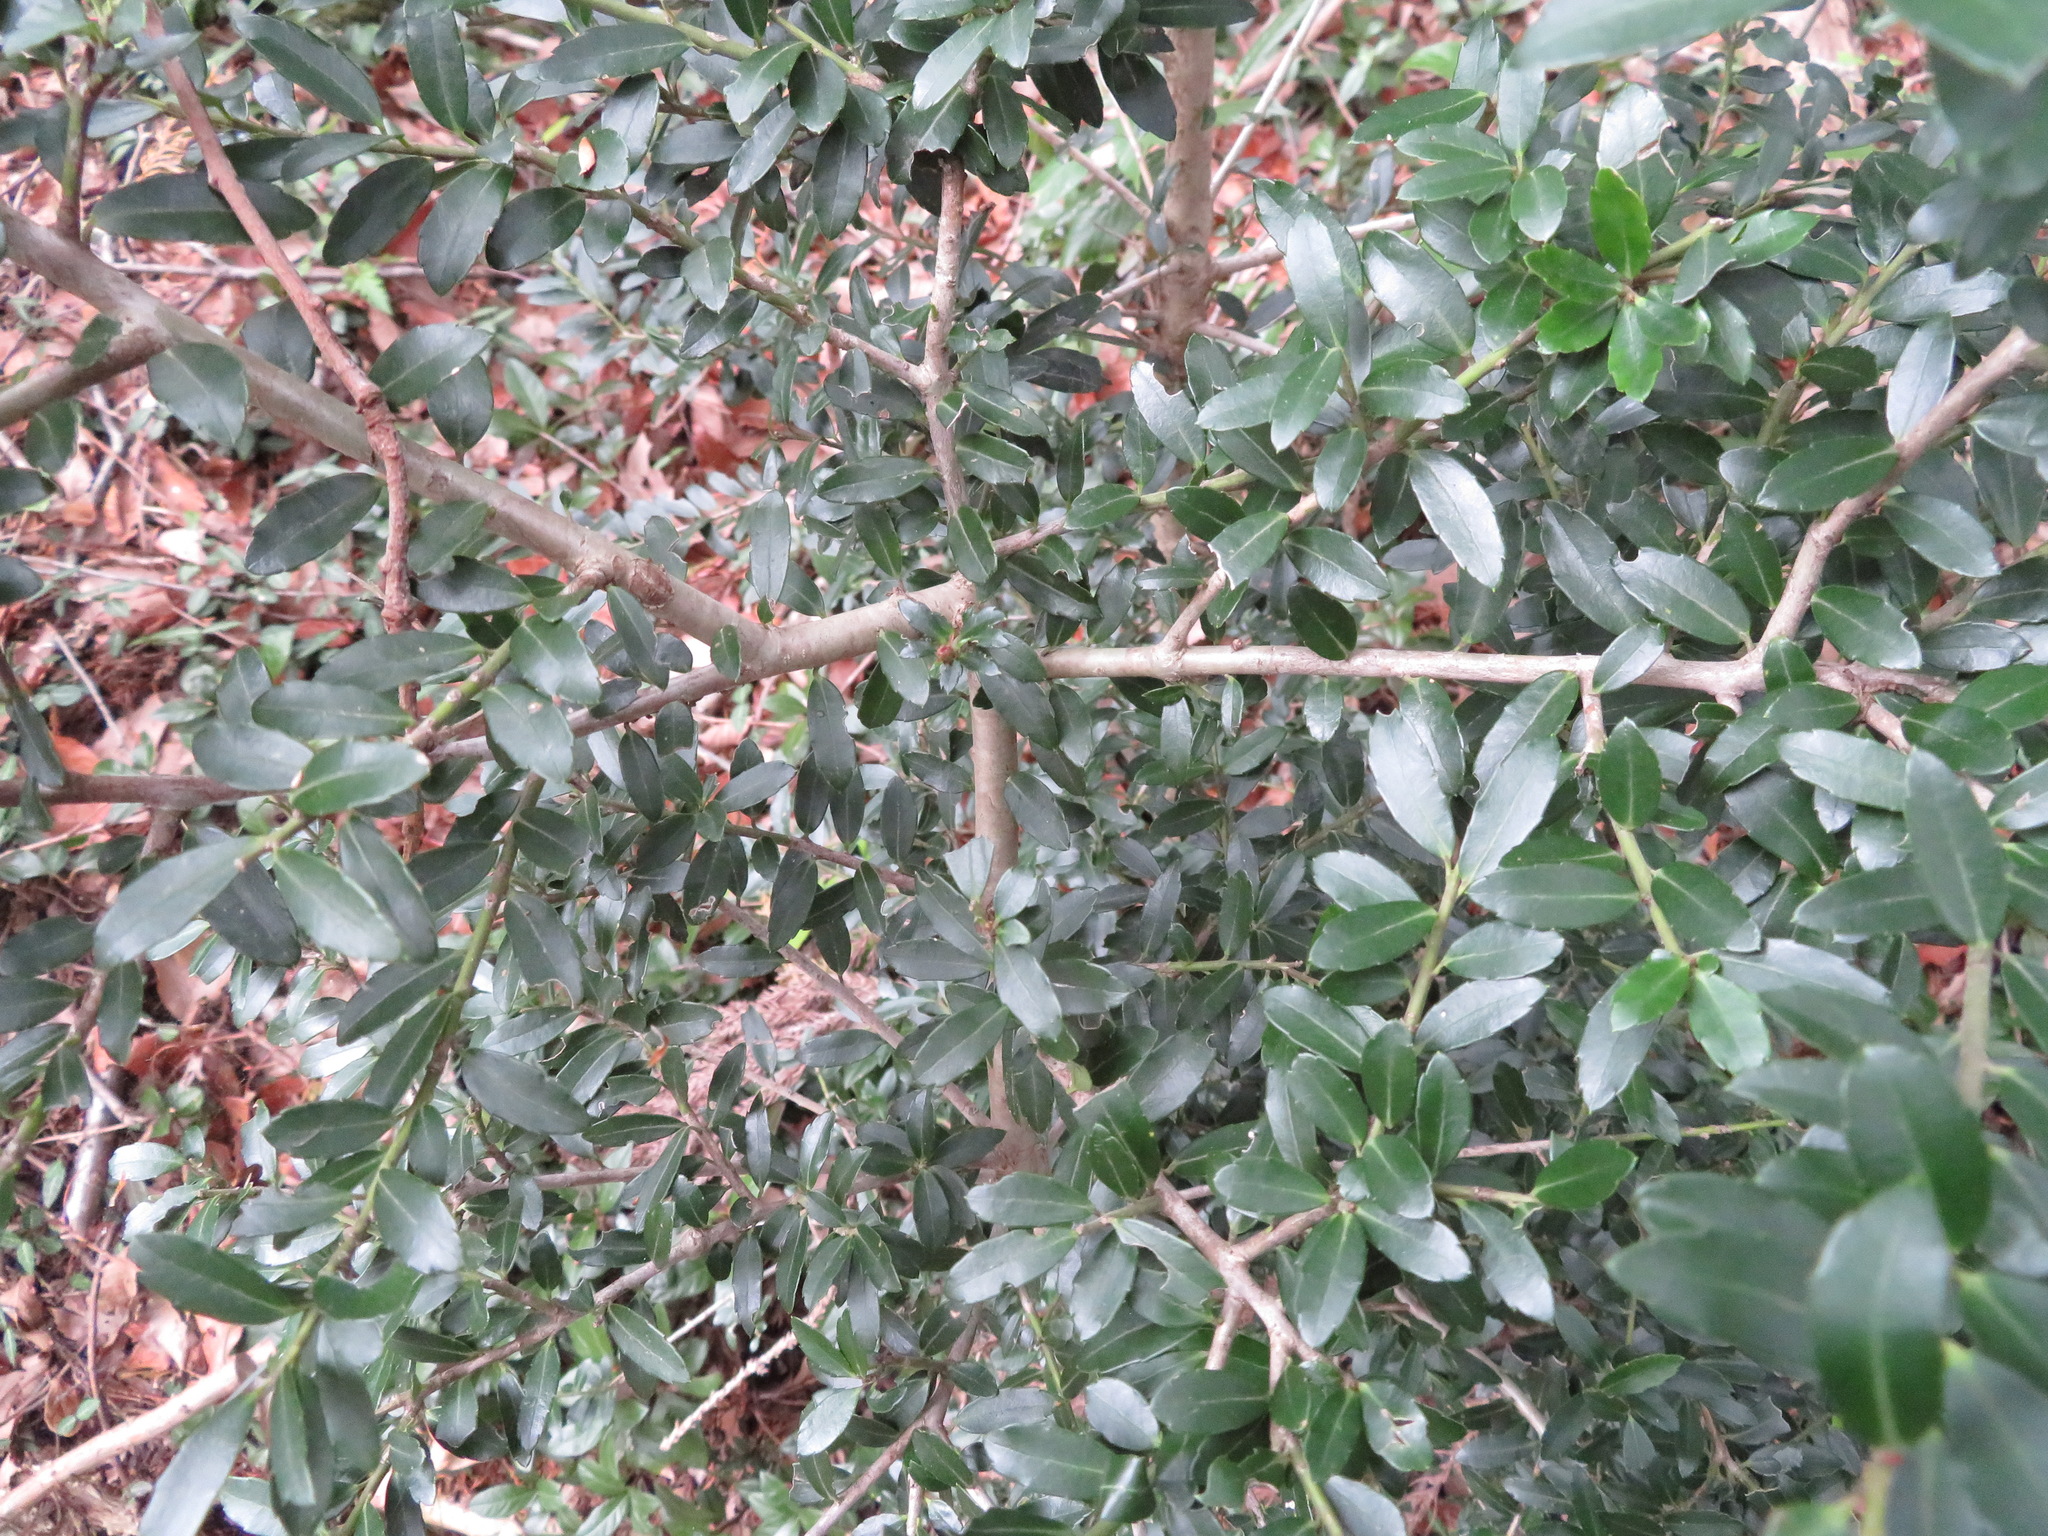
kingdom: Plantae
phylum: Tracheophyta
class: Magnoliopsida
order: Aquifoliales
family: Aquifoliaceae
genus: Ilex
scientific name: Ilex crenata
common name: Japanese holly
